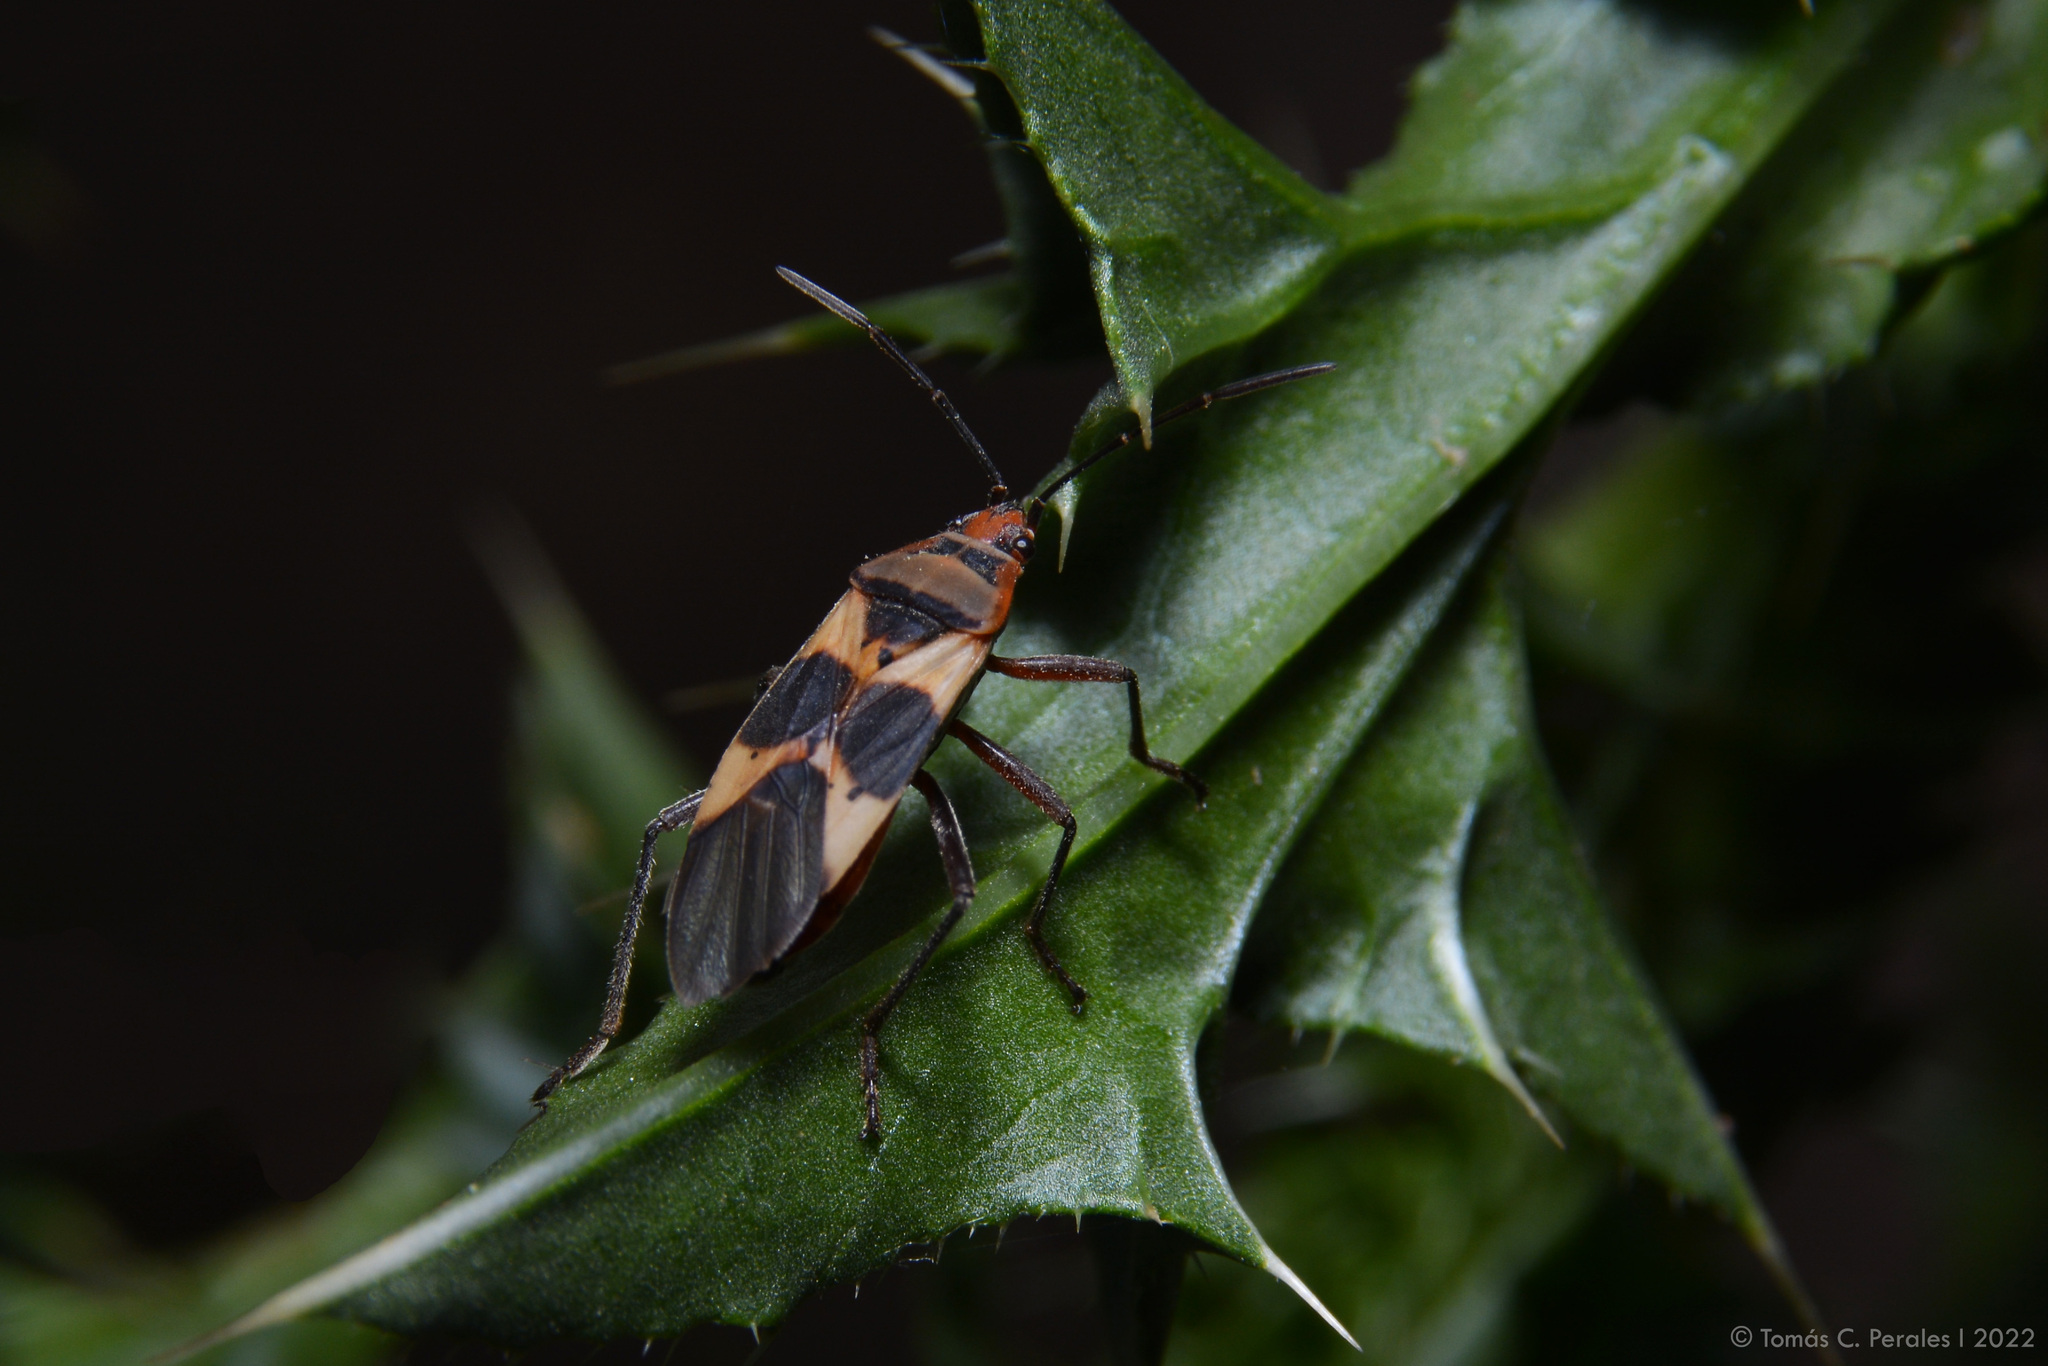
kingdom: Animalia
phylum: Arthropoda
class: Insecta
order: Hemiptera
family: Lygaeidae
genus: Oncopeltus
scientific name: Oncopeltus unifasciatellus
